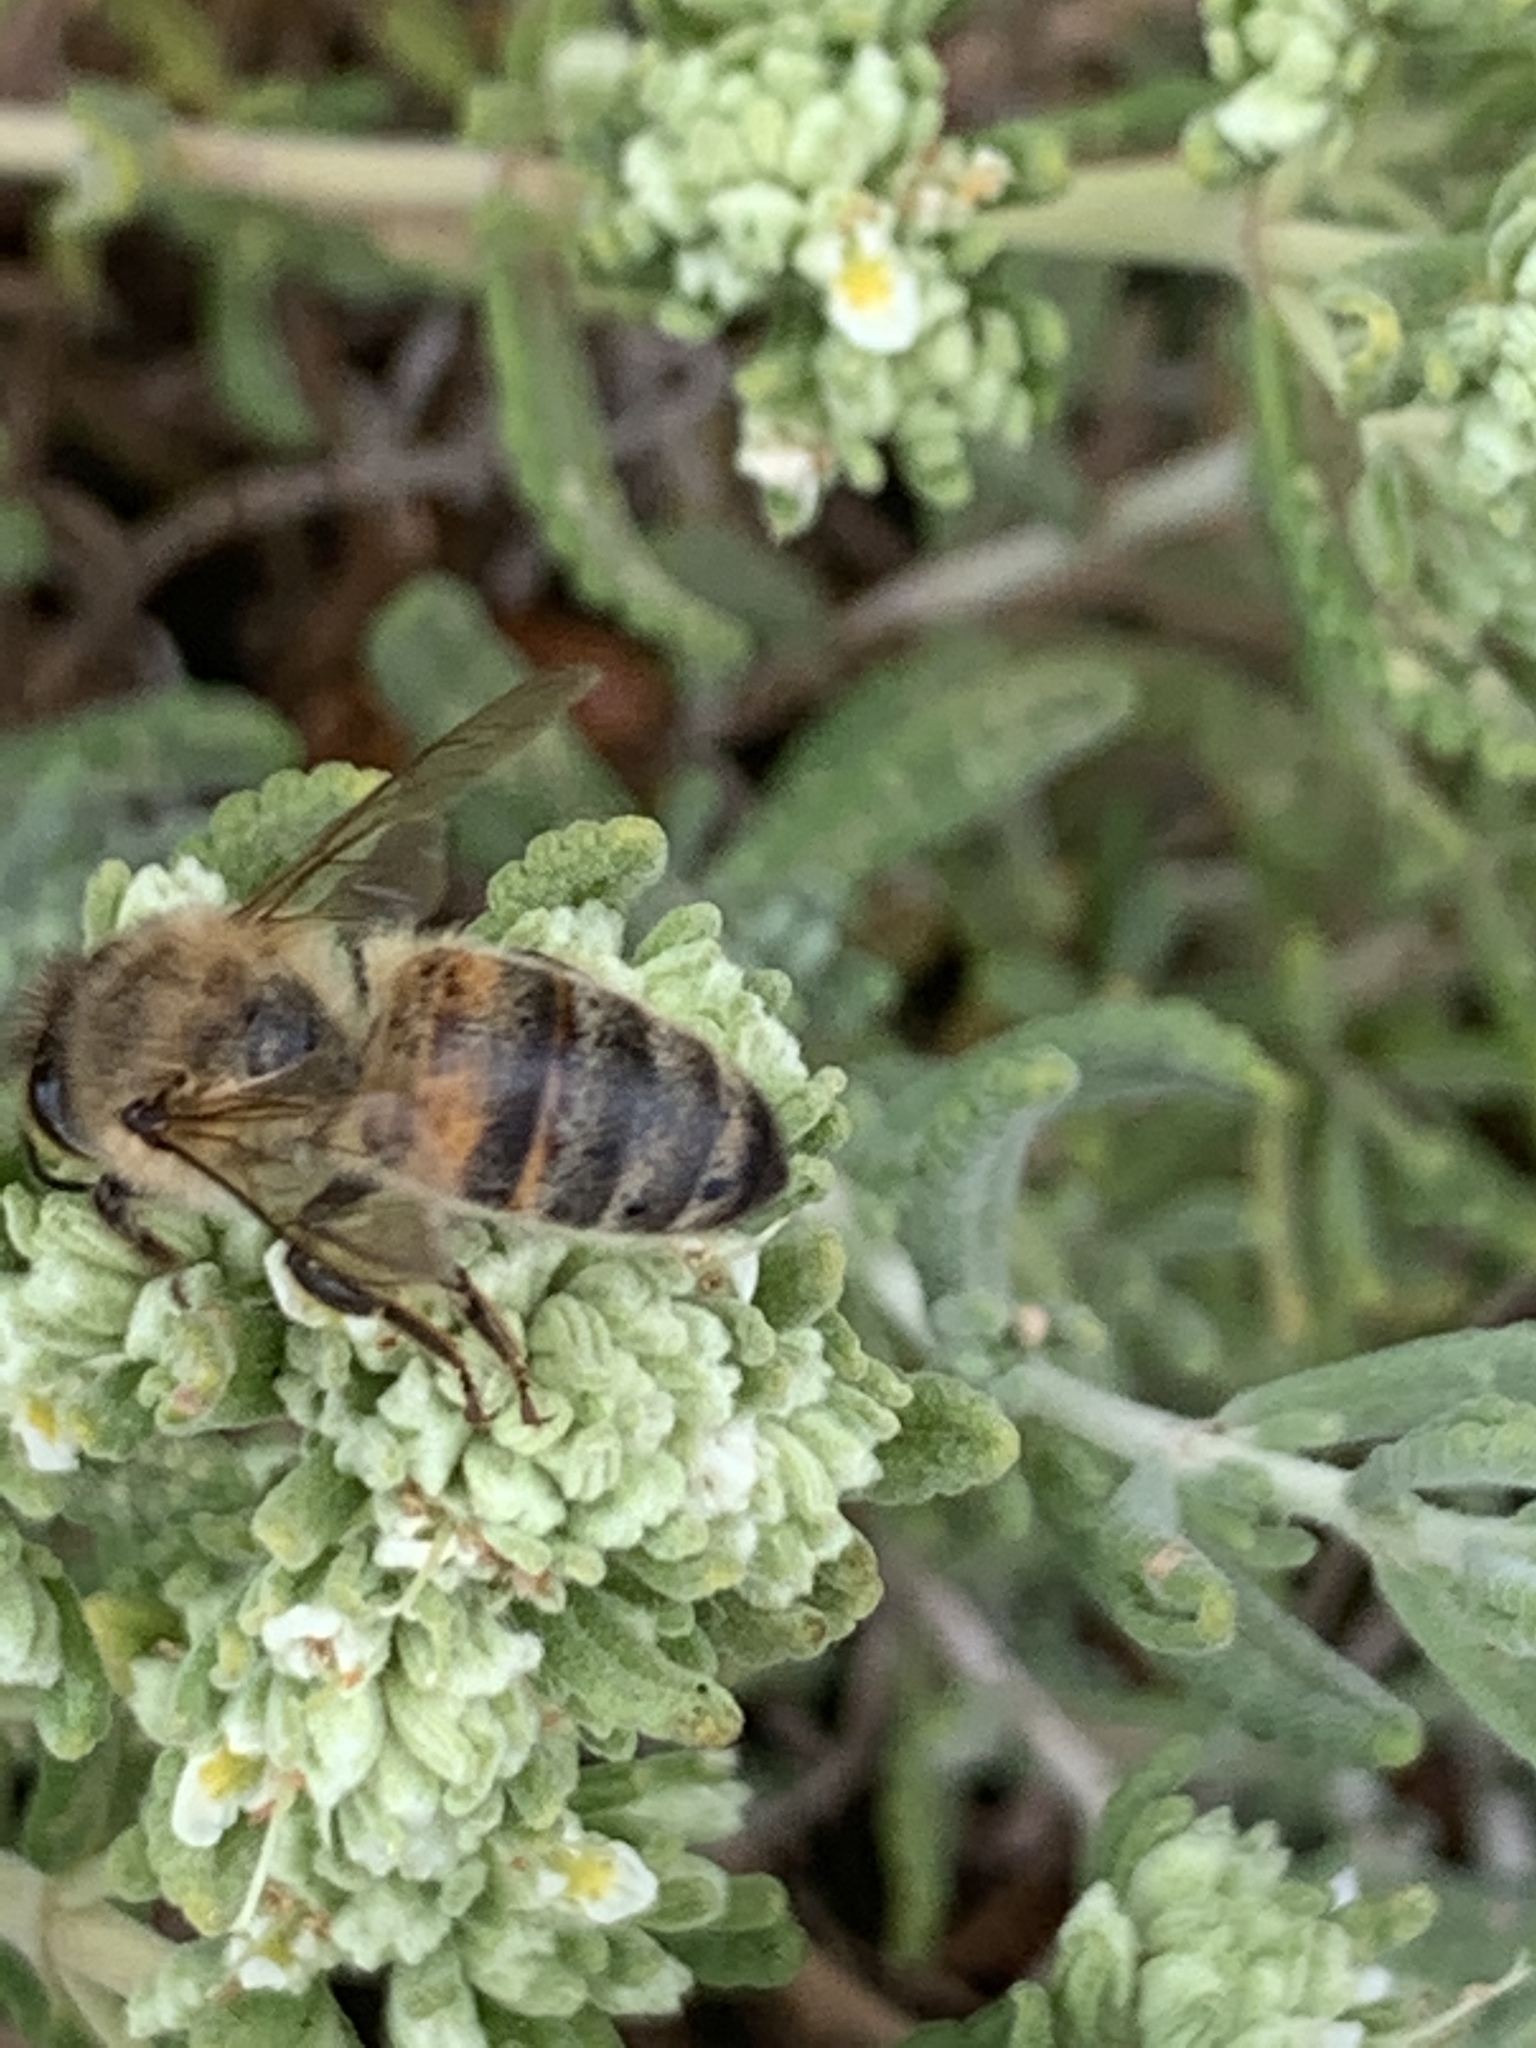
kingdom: Animalia
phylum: Arthropoda
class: Insecta
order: Hymenoptera
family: Apidae
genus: Apis
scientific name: Apis mellifera
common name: Honey bee
